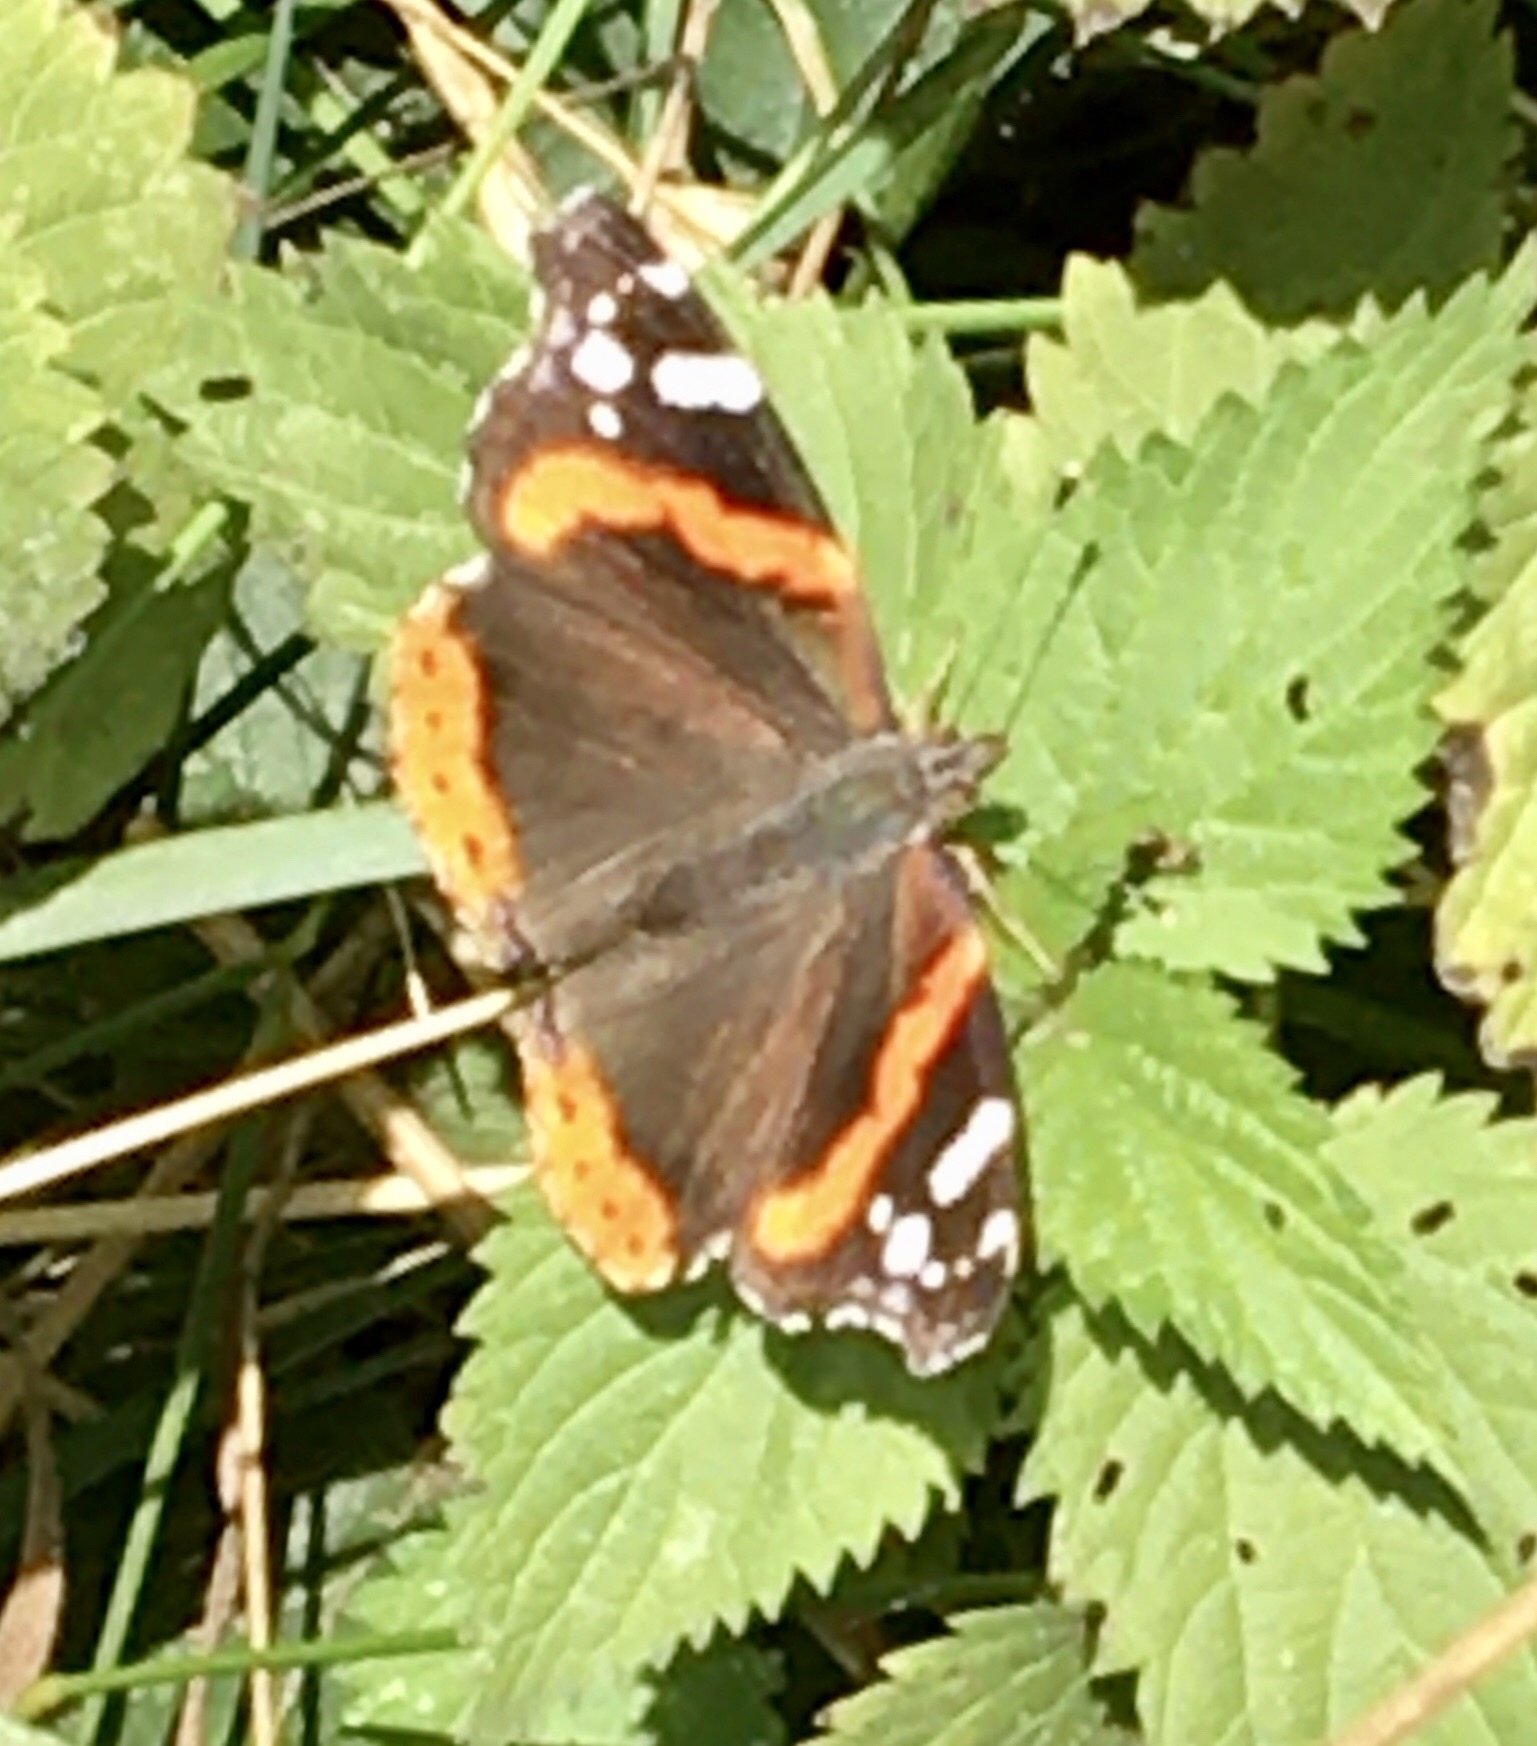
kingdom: Animalia
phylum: Arthropoda
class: Insecta
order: Lepidoptera
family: Nymphalidae
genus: Vanessa
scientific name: Vanessa atalanta
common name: Red admiral
